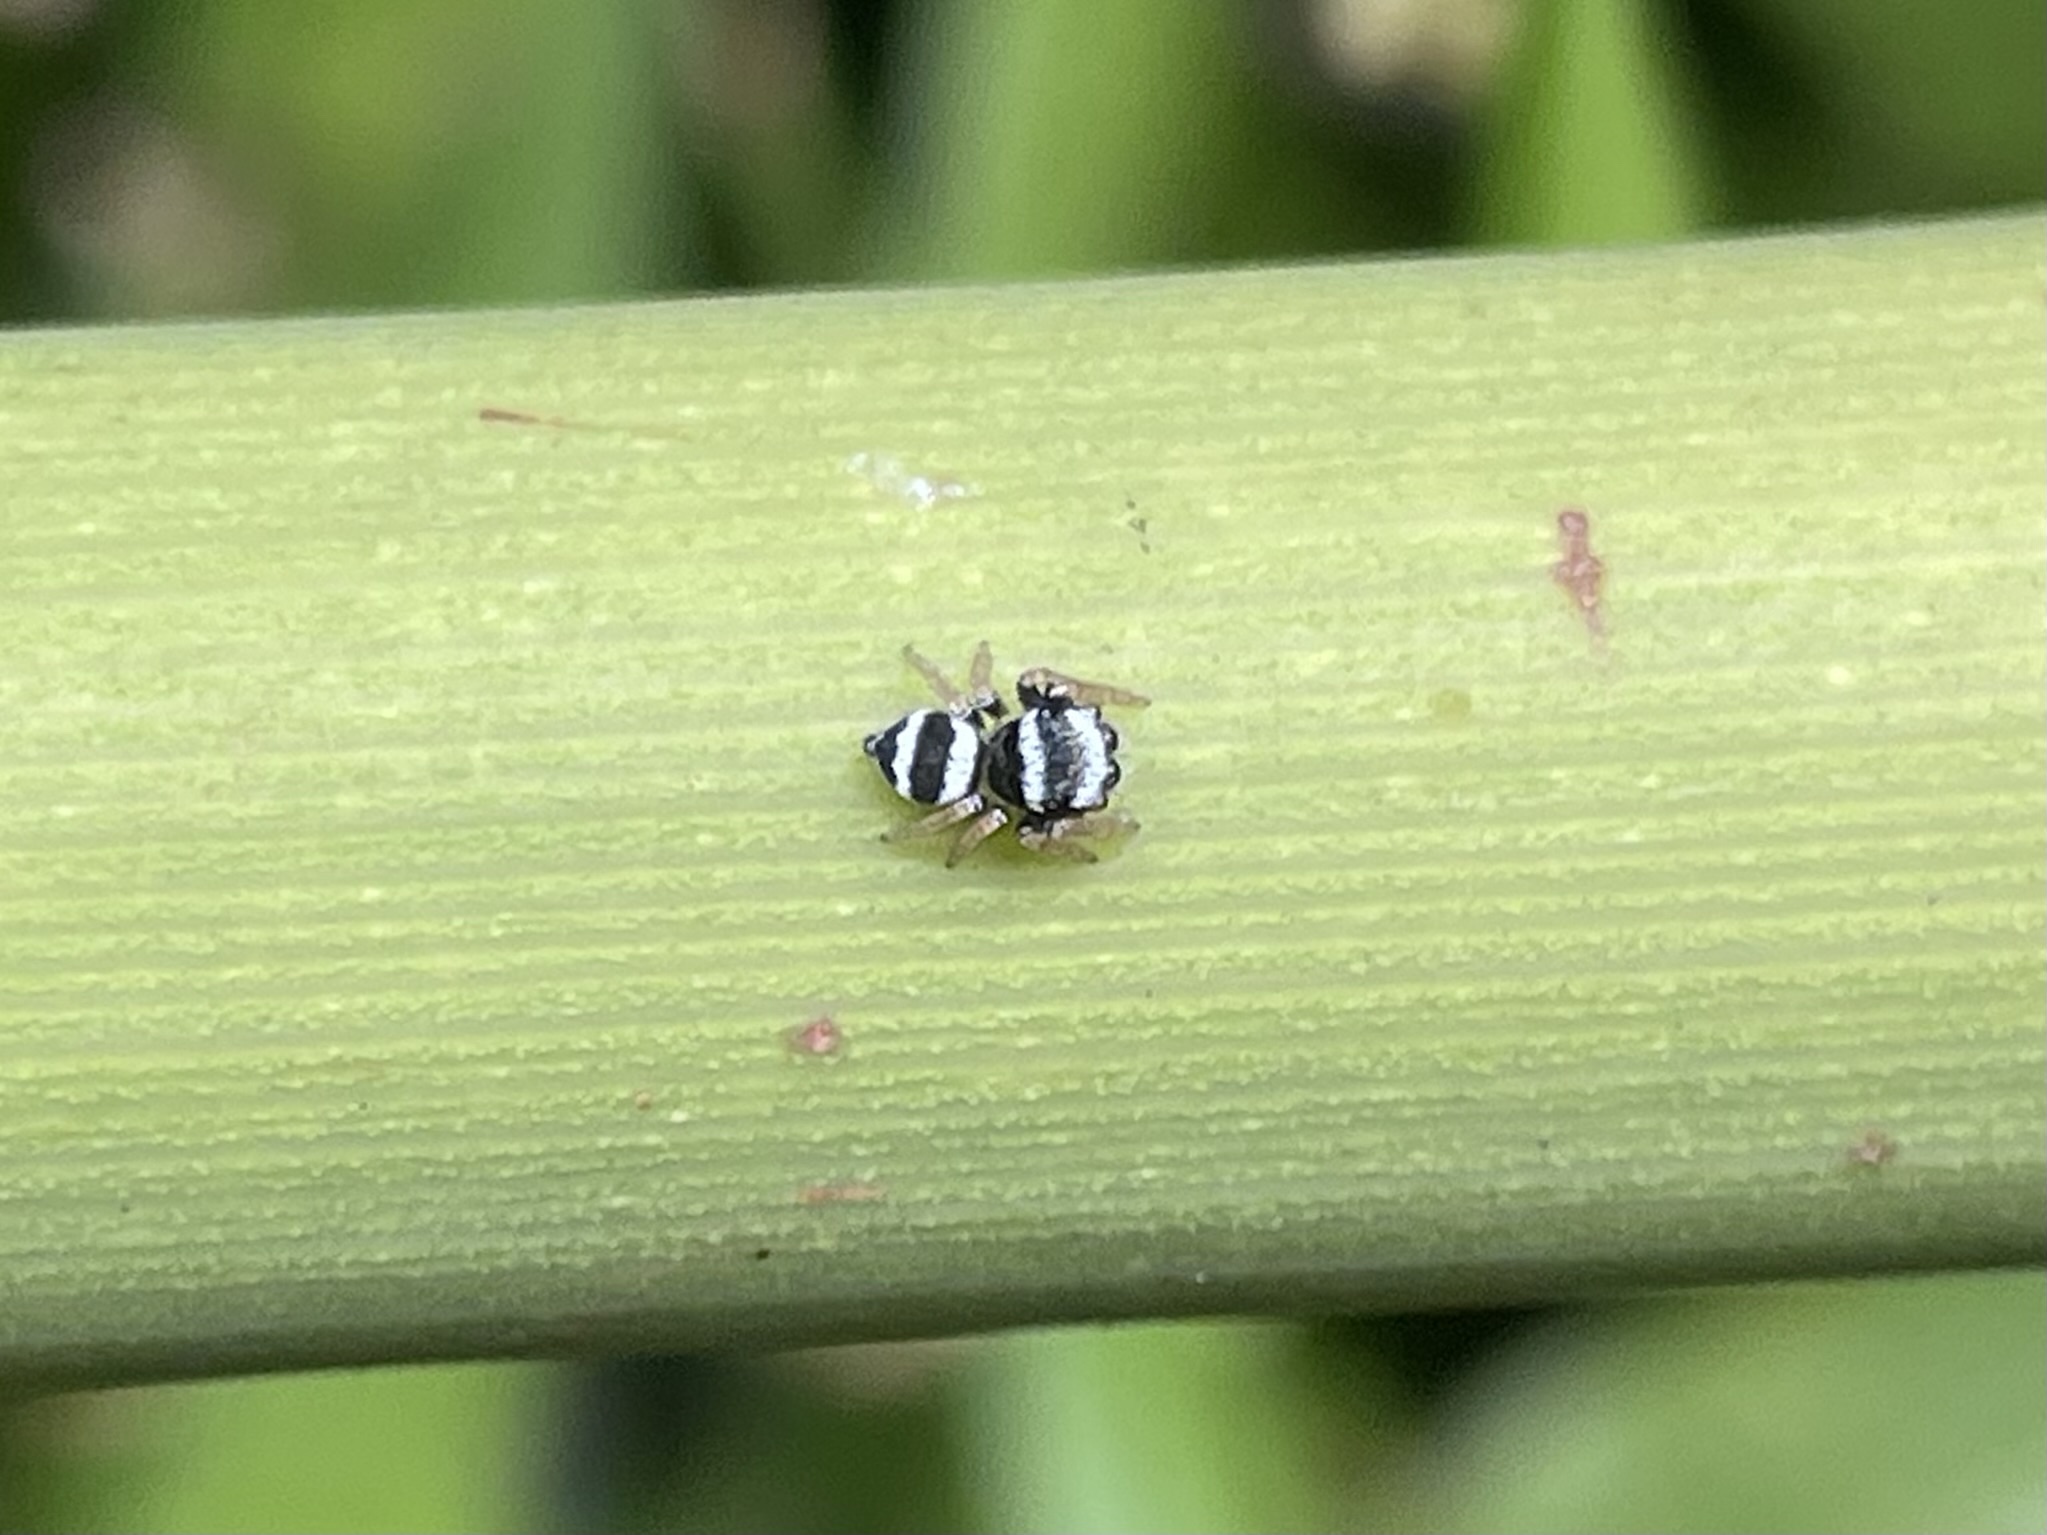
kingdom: Animalia
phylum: Arthropoda
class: Arachnida
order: Araneae
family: Salticidae
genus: Euryattus
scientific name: Euryattus bleekeri
